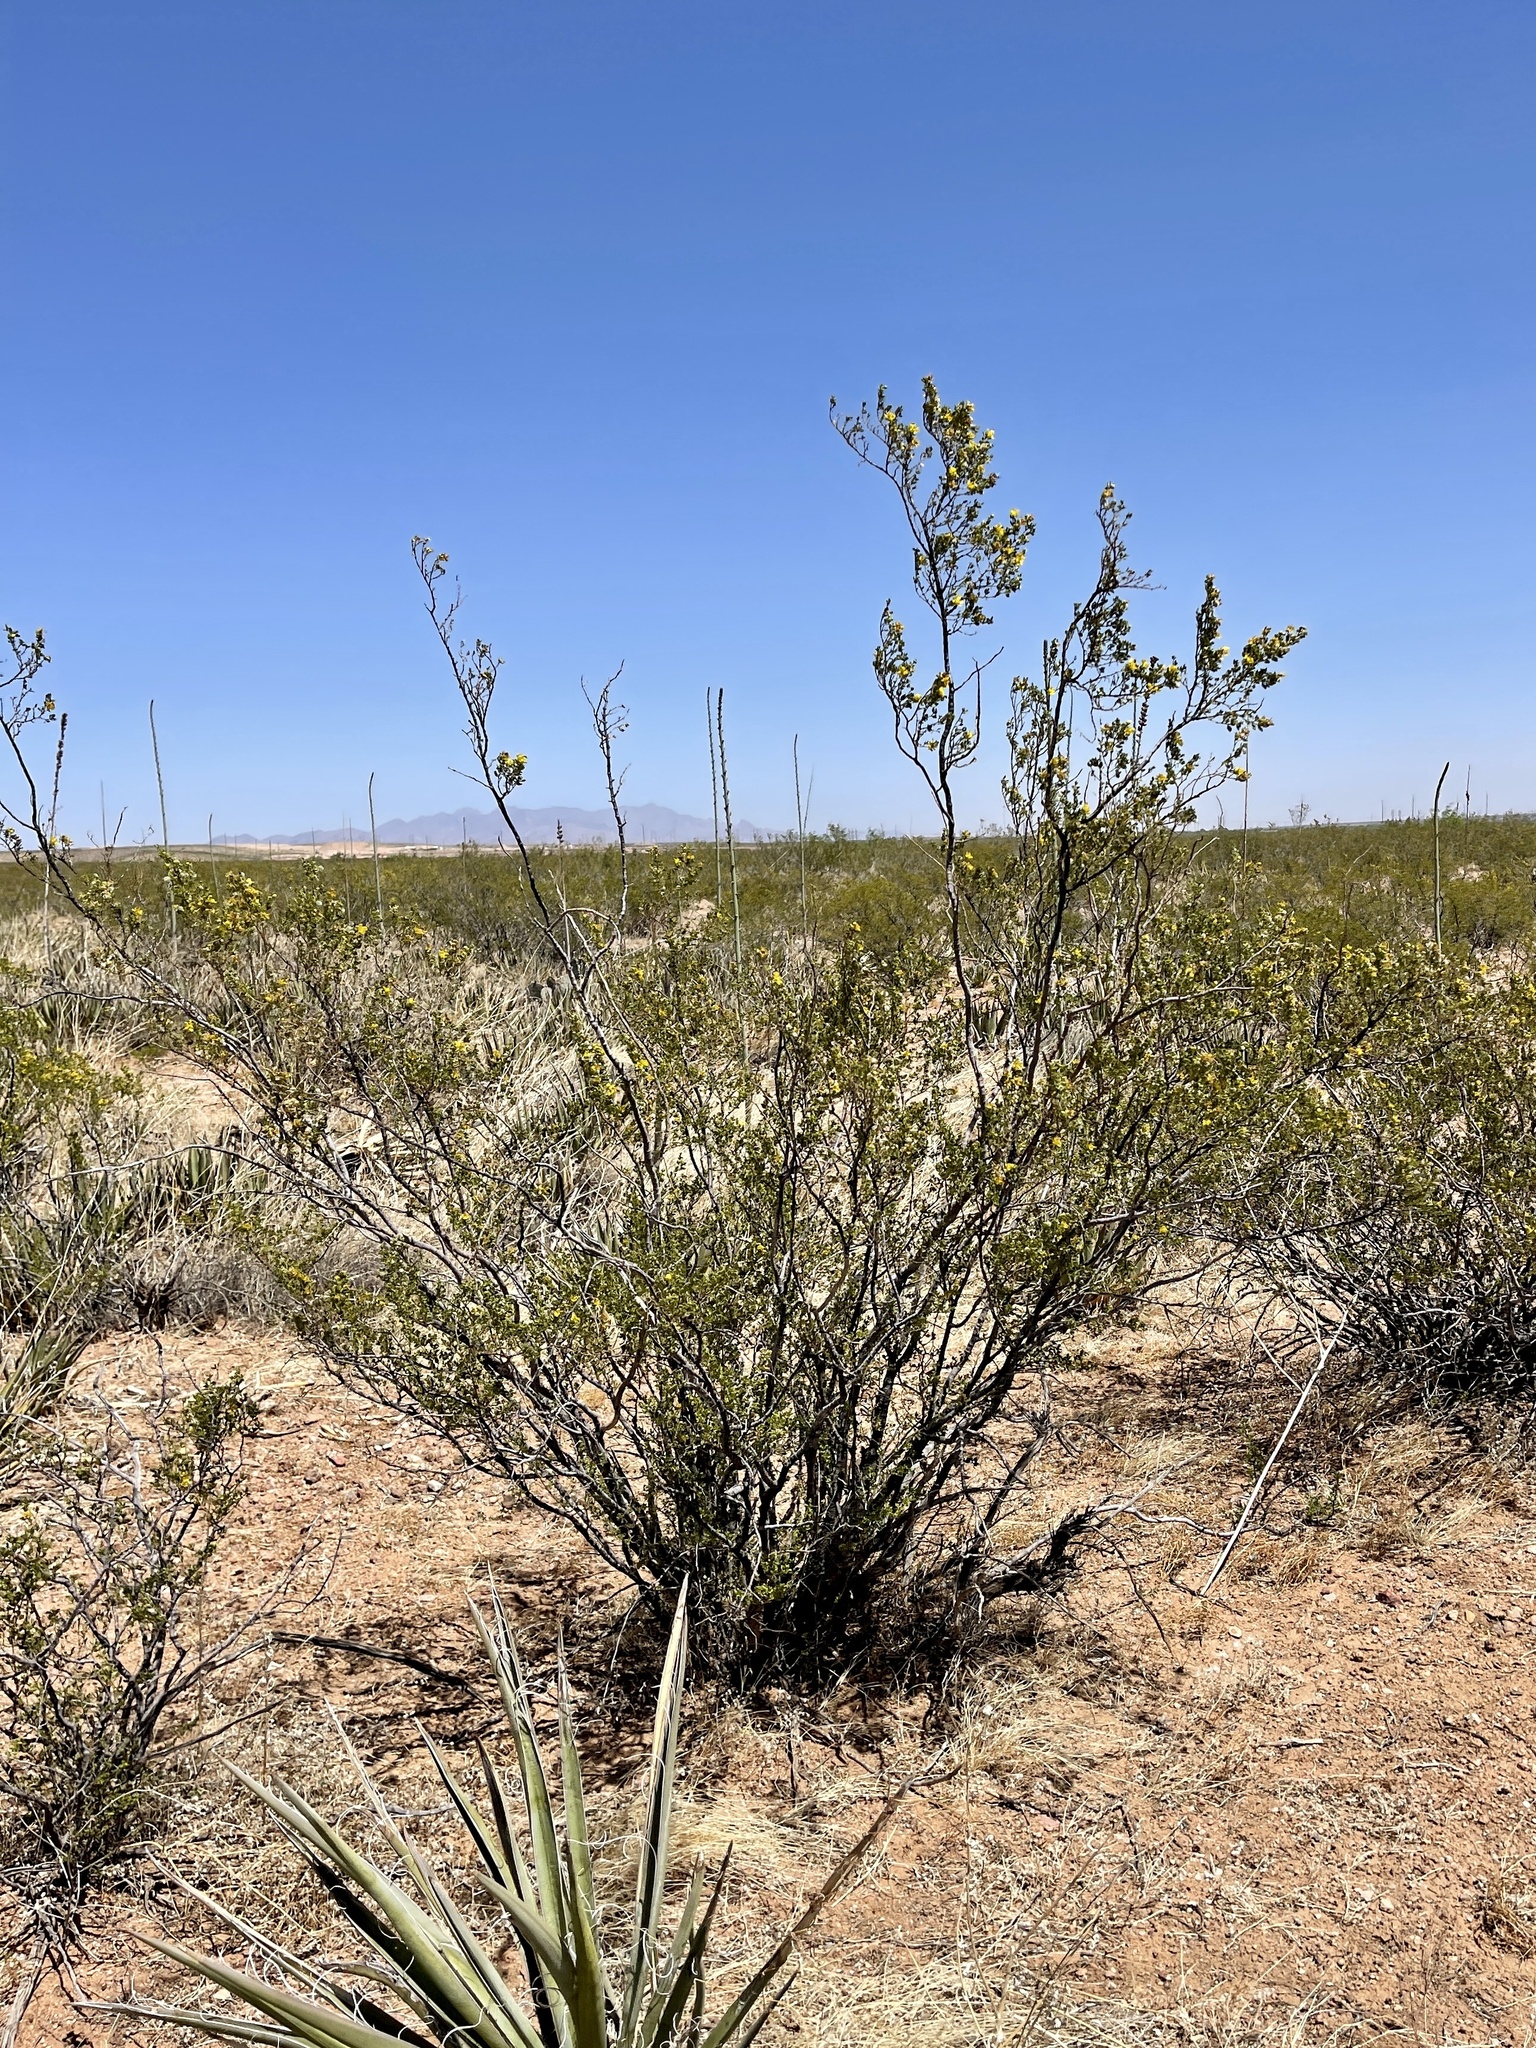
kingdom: Plantae
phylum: Tracheophyta
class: Magnoliopsida
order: Zygophyllales
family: Zygophyllaceae
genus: Larrea
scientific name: Larrea tridentata
